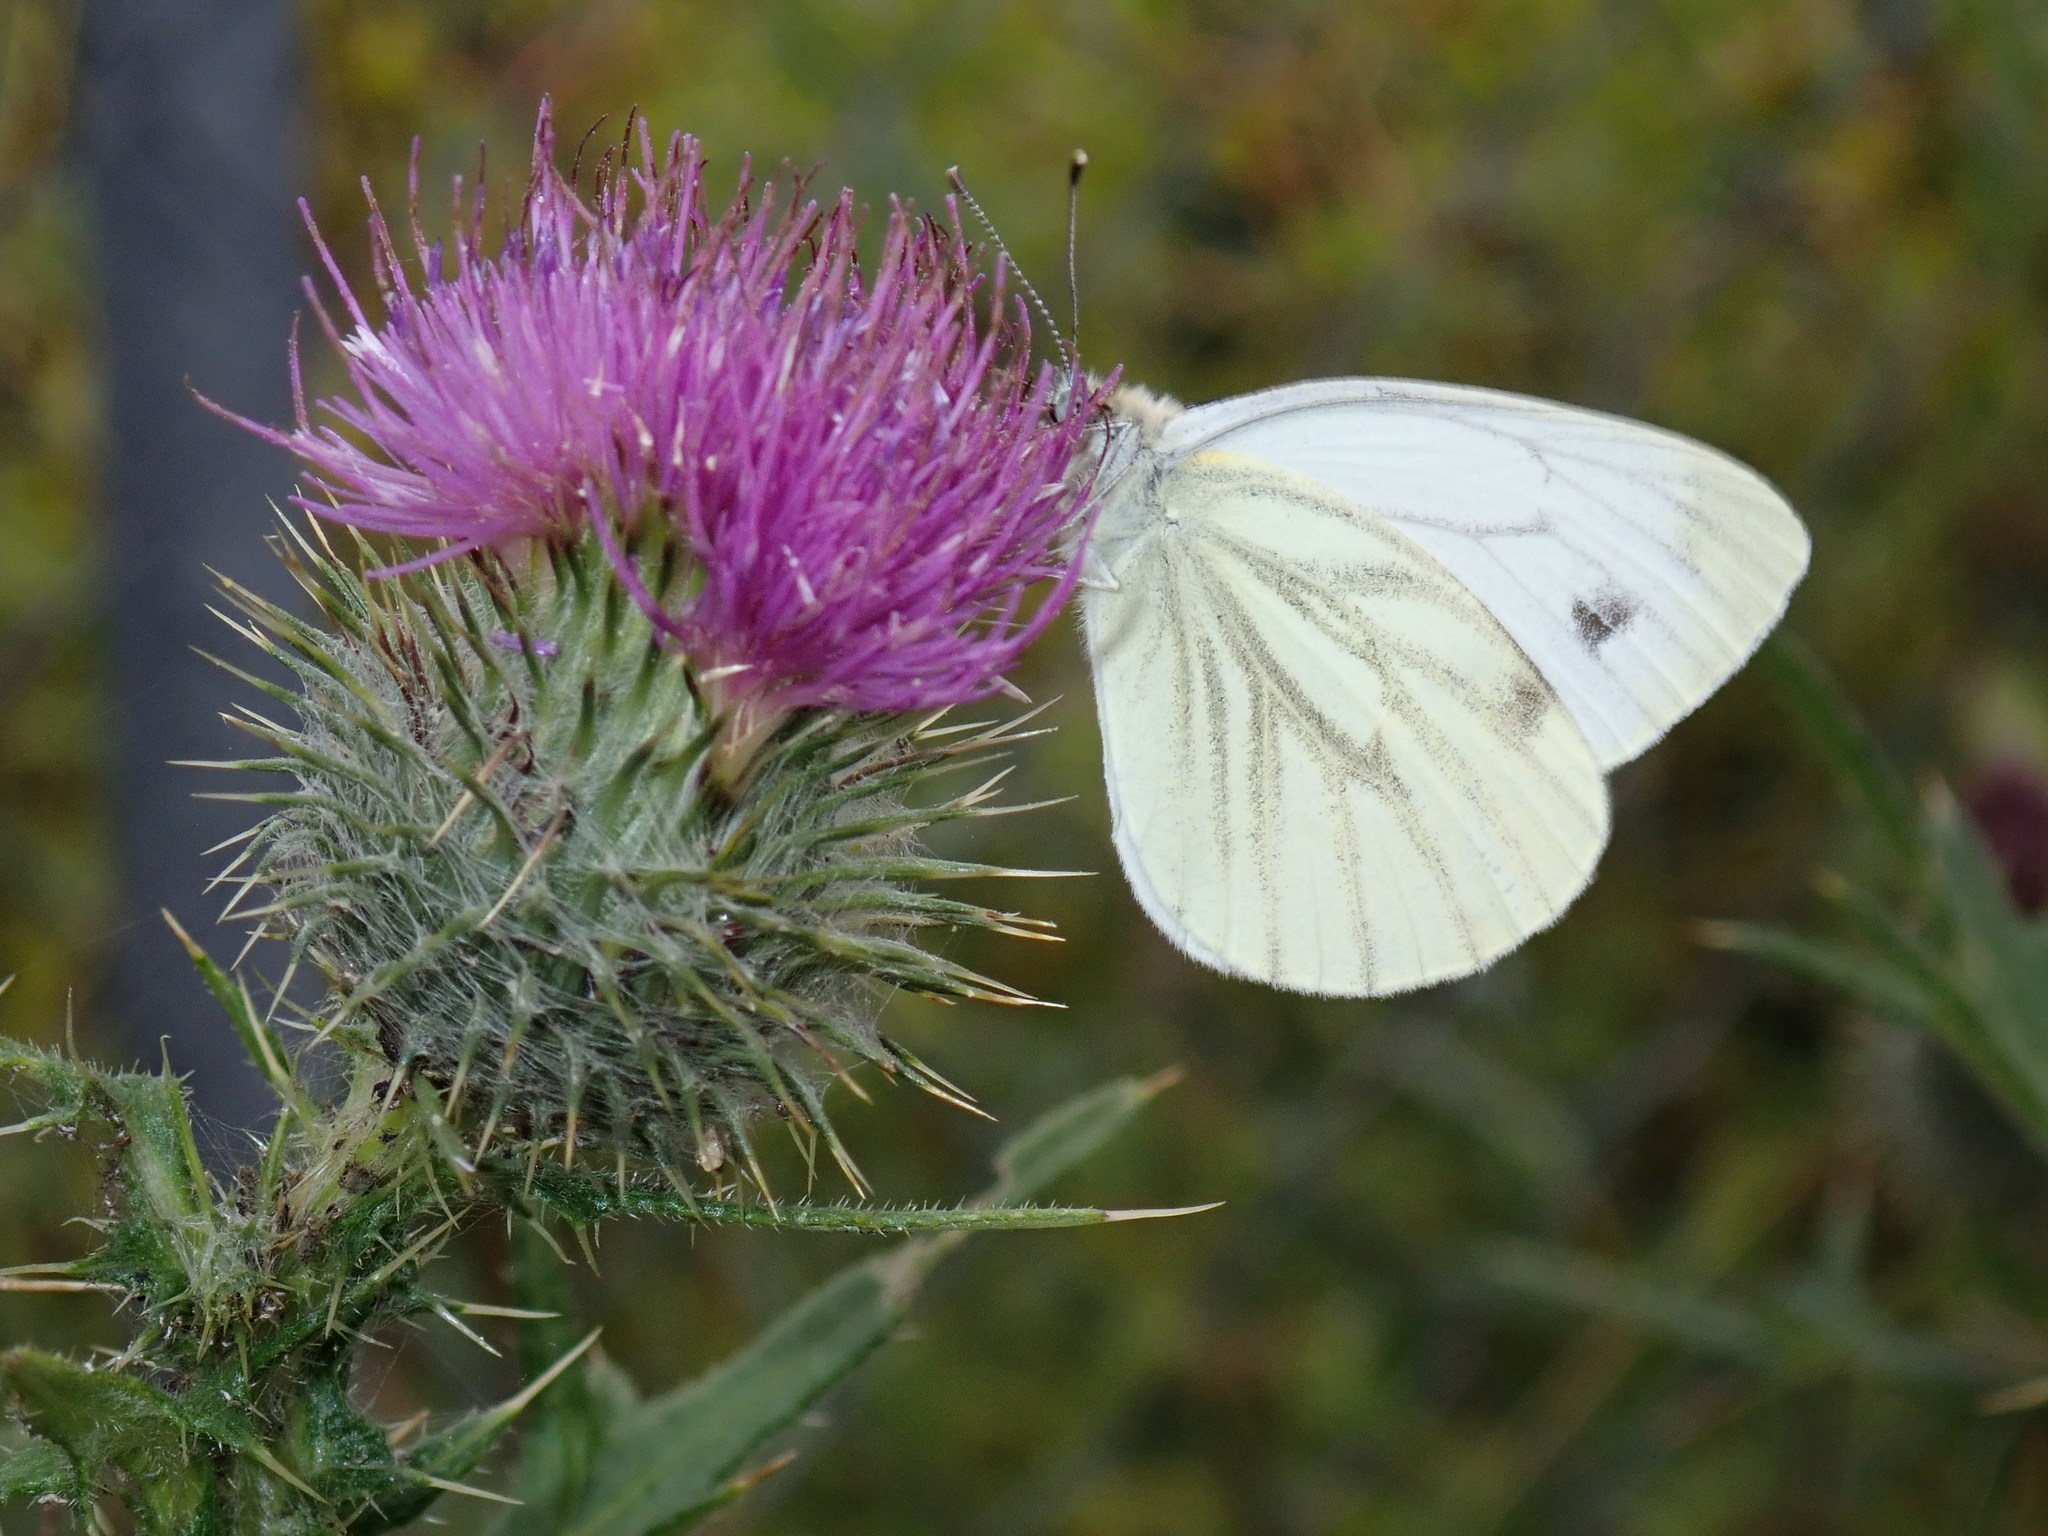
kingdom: Animalia
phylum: Arthropoda
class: Insecta
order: Lepidoptera
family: Pieridae
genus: Pieris
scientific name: Pieris napi
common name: Green-veined white
